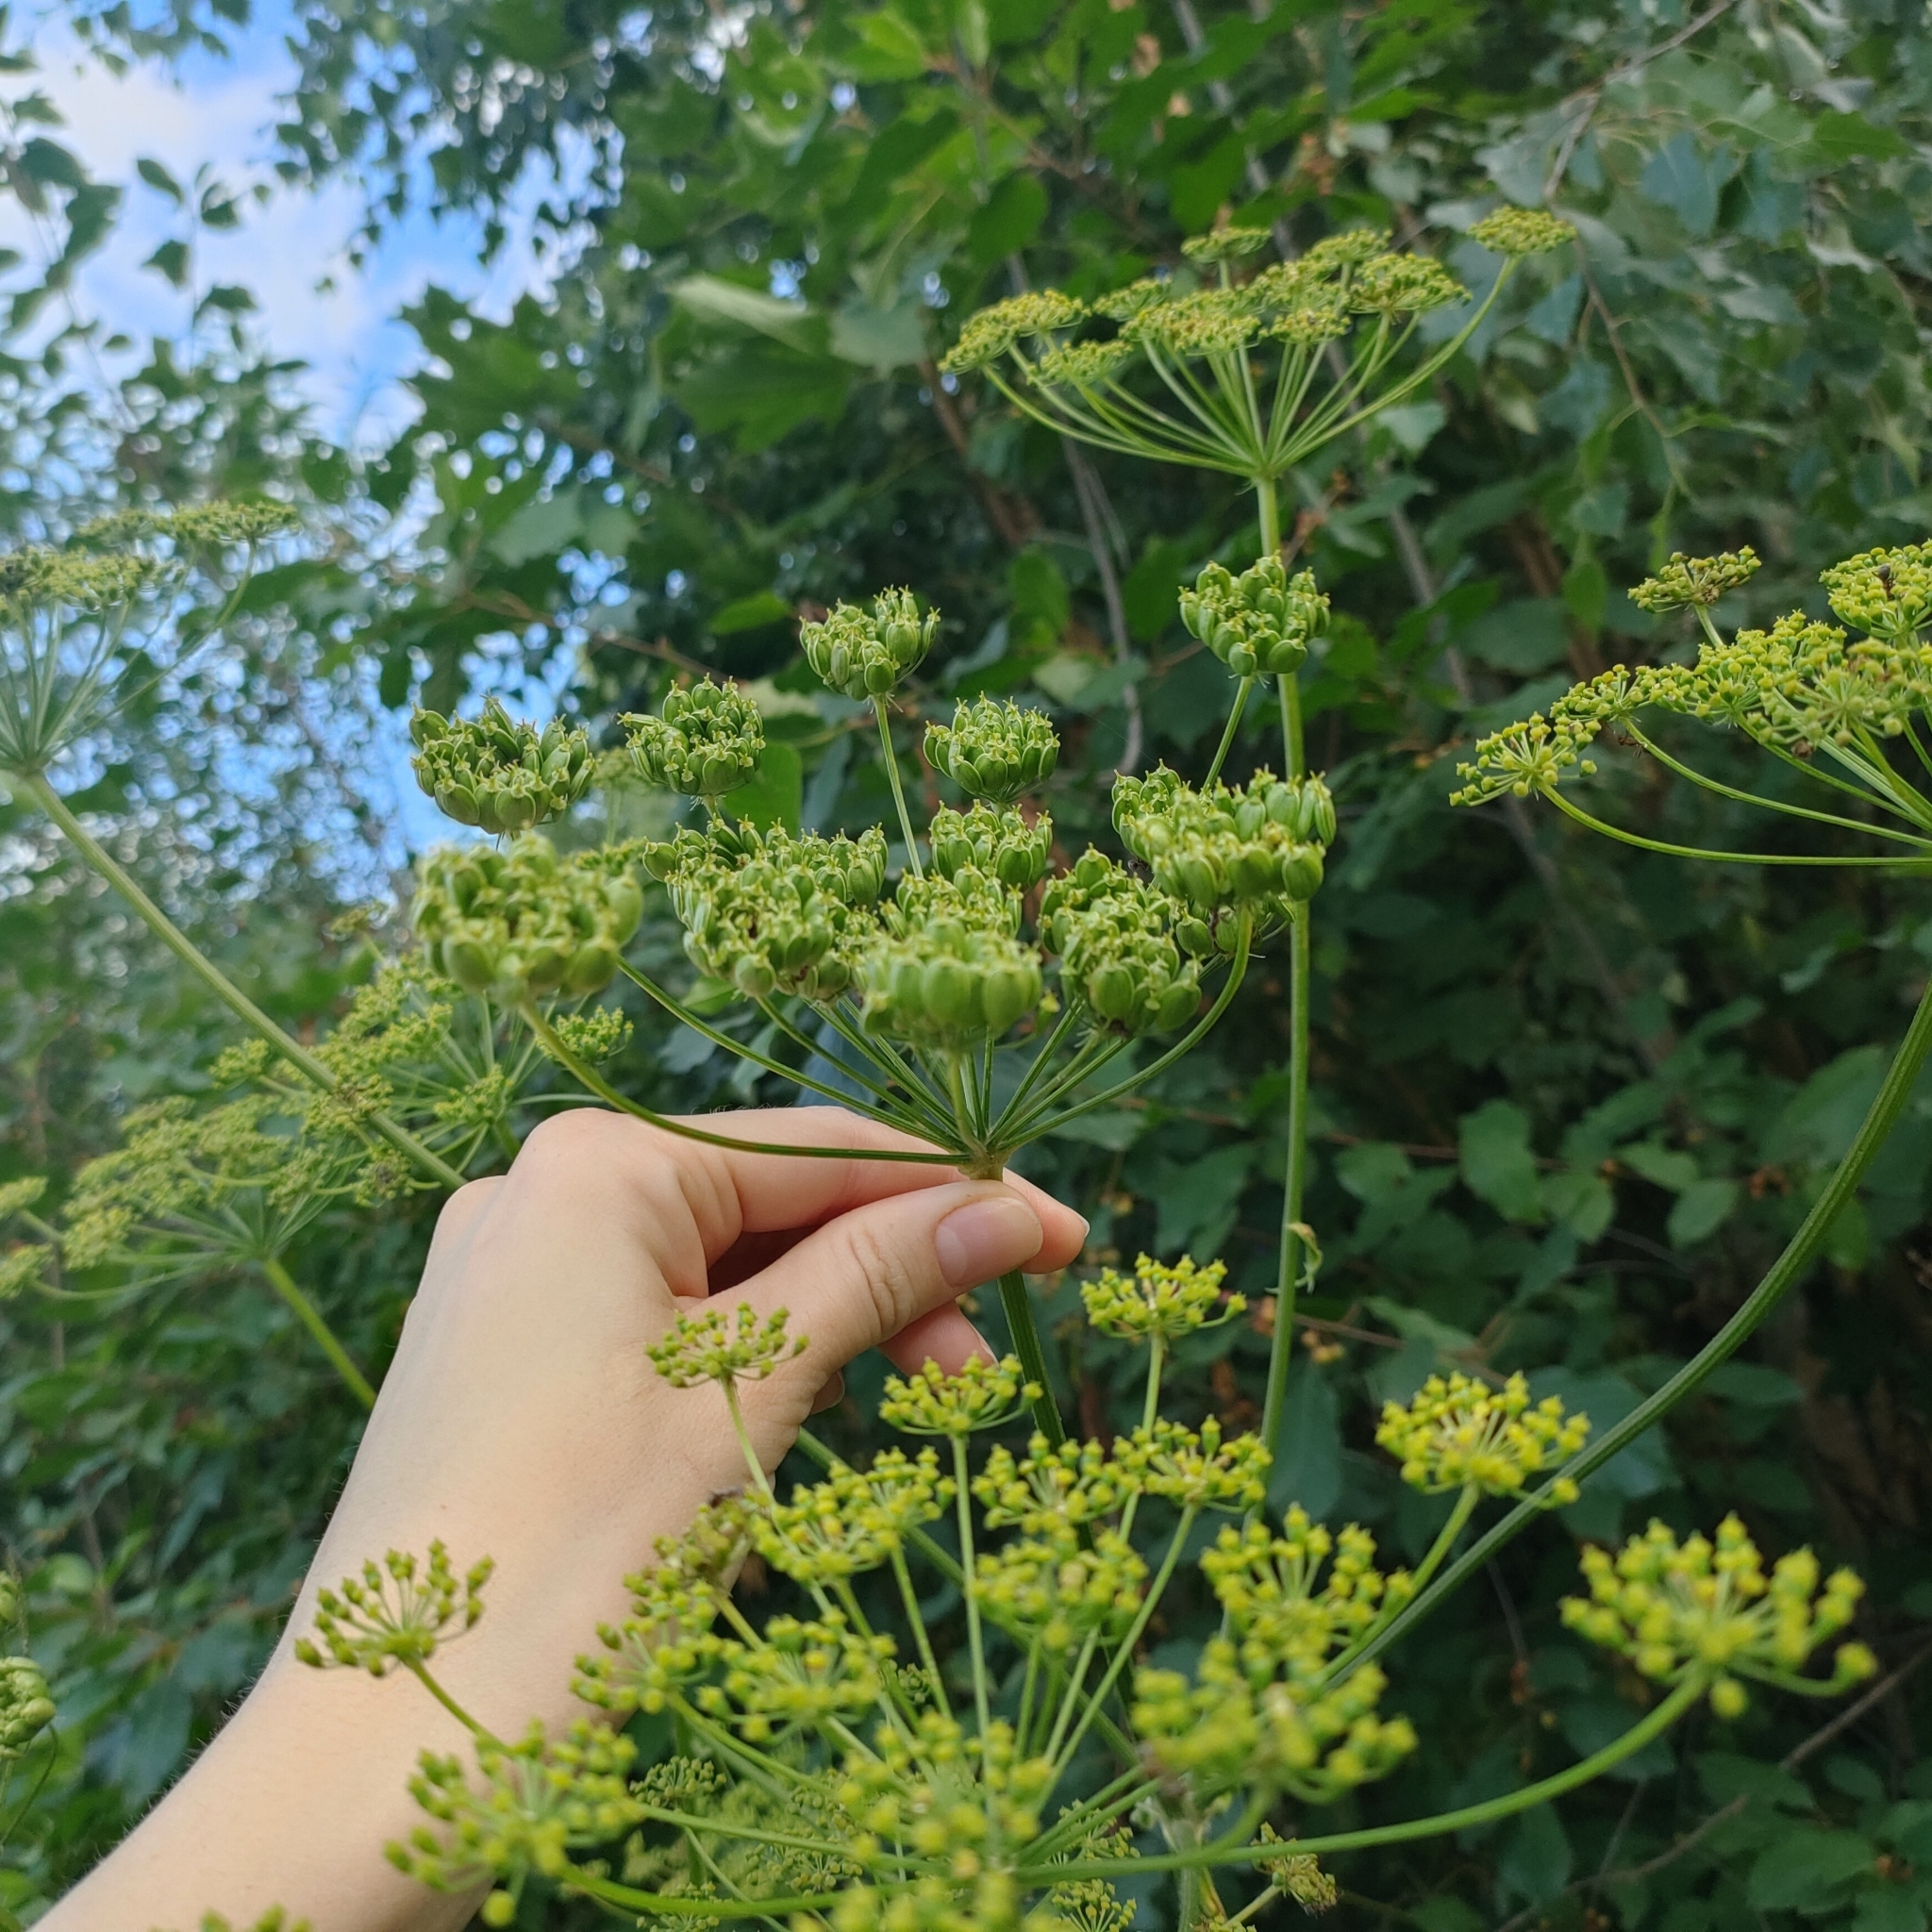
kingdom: Plantae
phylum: Tracheophyta
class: Magnoliopsida
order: Apiales
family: Apiaceae
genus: Heracleum
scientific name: Heracleum sphondylium
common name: Hogweed
